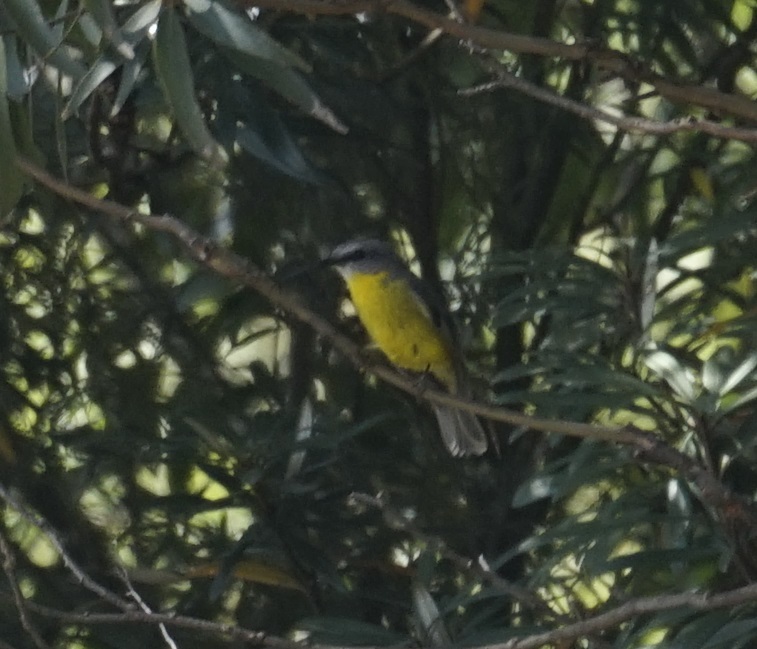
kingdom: Animalia
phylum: Chordata
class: Aves
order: Passeriformes
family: Petroicidae
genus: Eopsaltria
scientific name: Eopsaltria australis
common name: Eastern yellow robin
